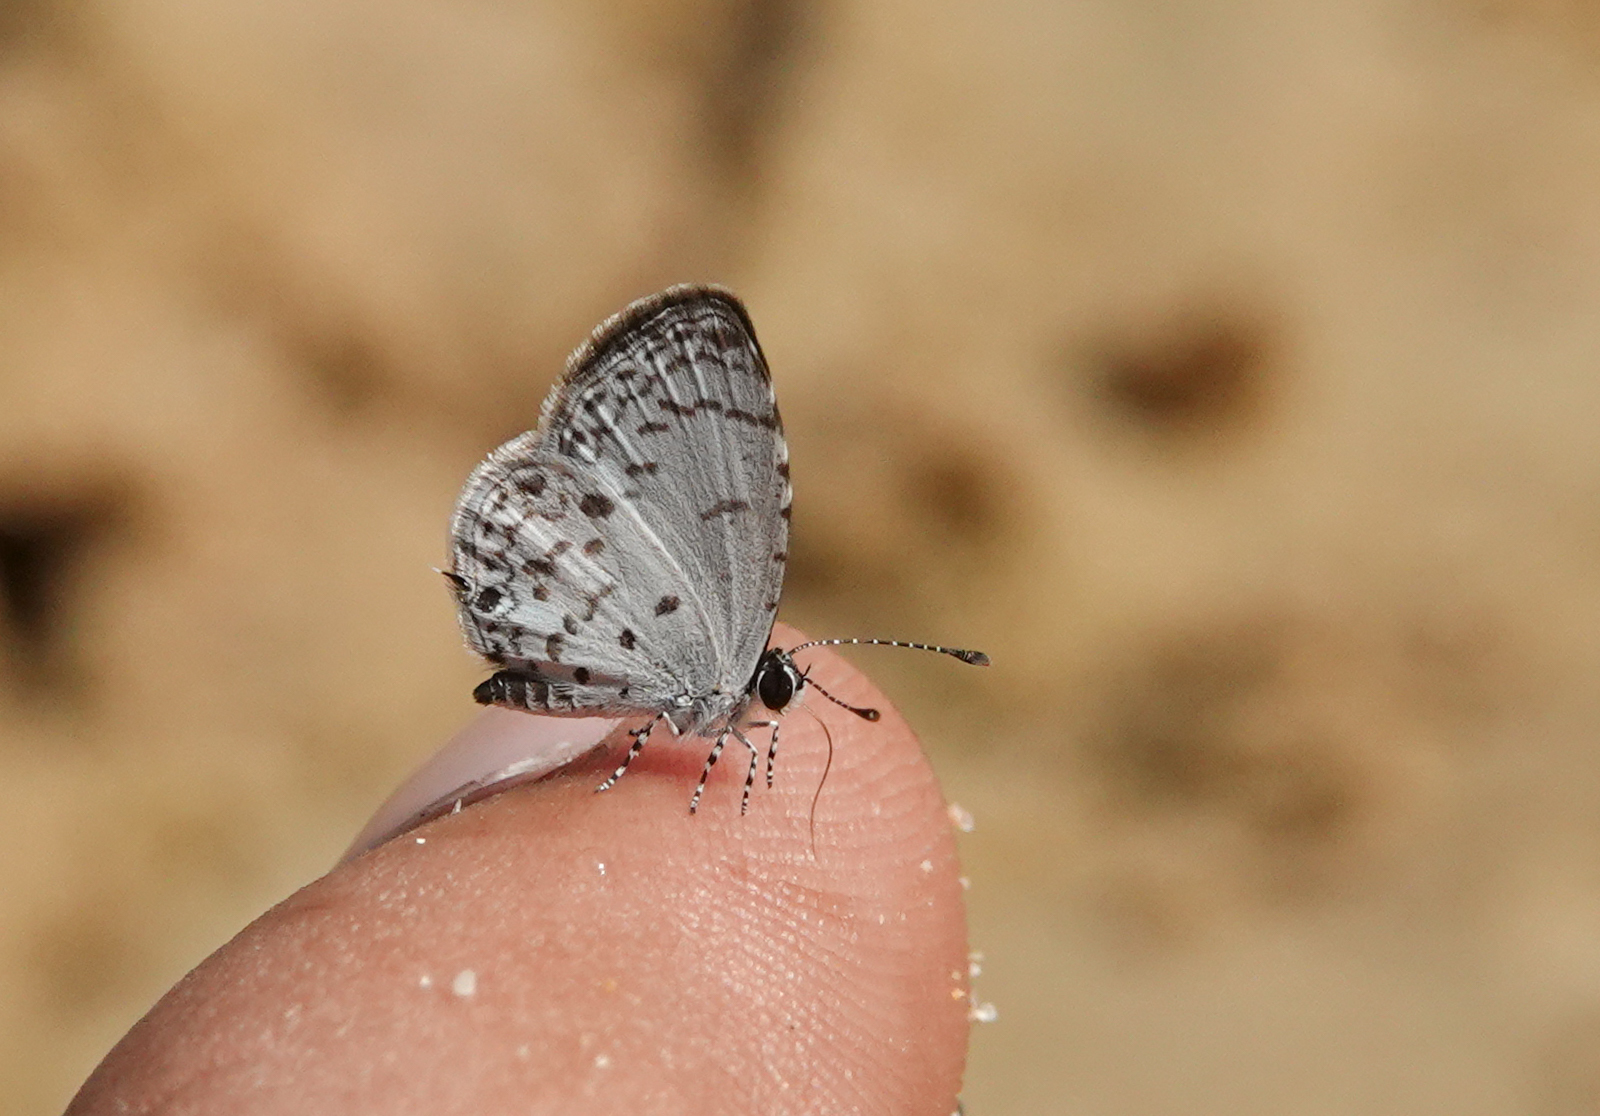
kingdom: Animalia
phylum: Arthropoda
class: Insecta
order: Lepidoptera
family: Lycaenidae
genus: Megisba
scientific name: Megisba malaya
